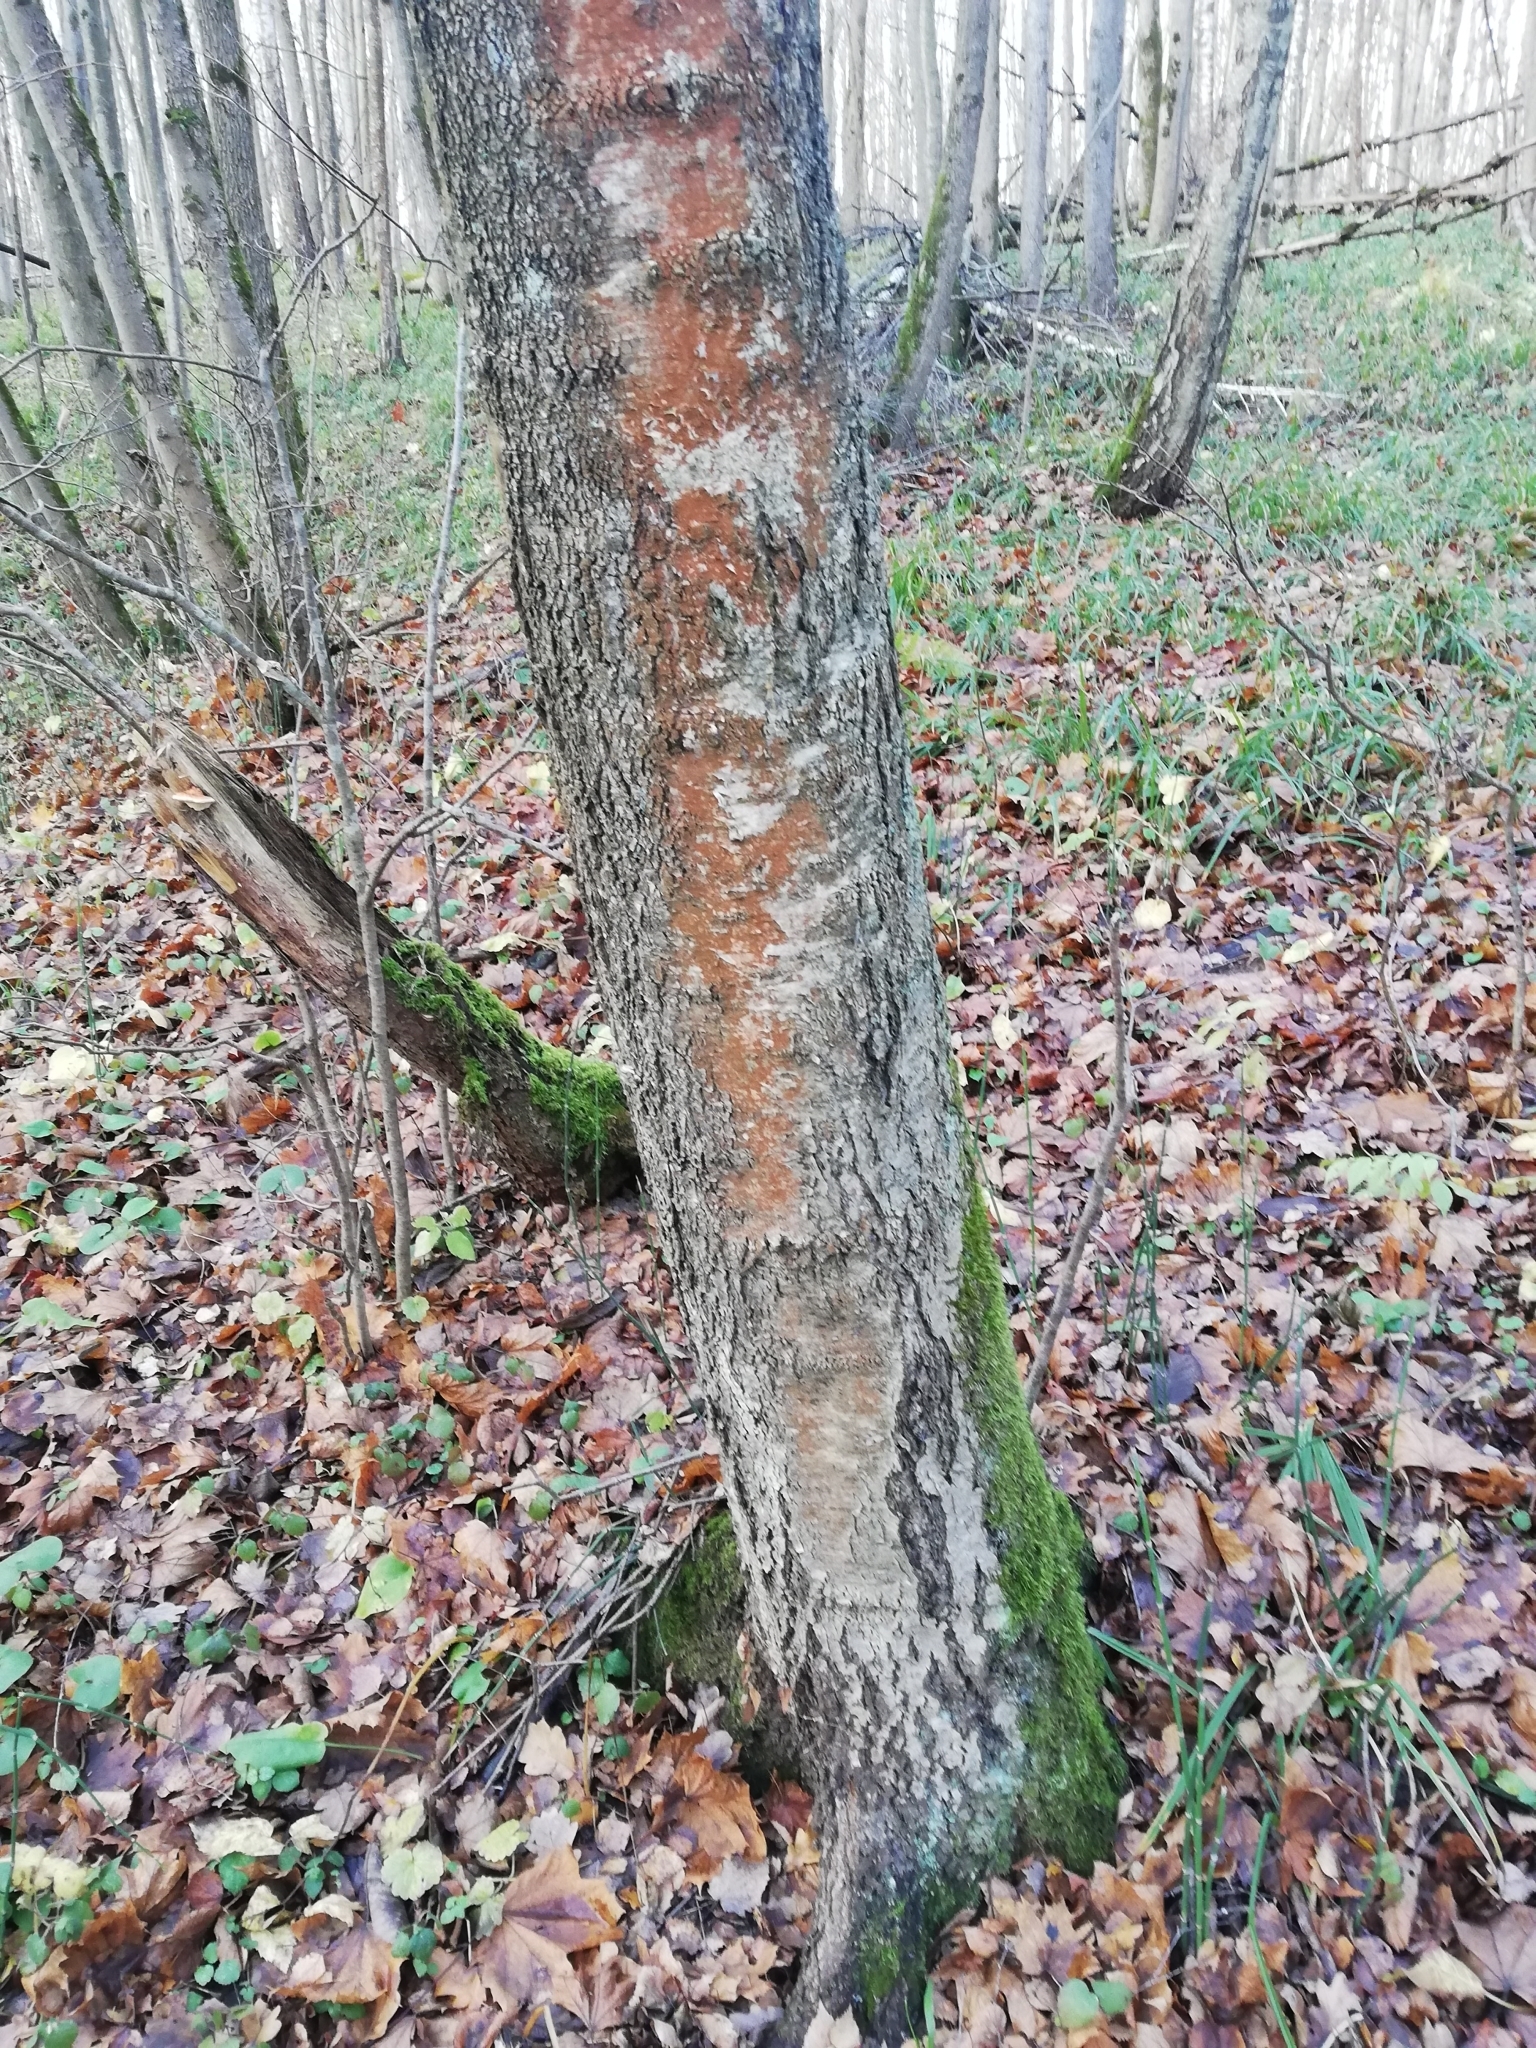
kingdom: Plantae
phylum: Tracheophyta
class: Magnoliopsida
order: Fagales
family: Betulaceae
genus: Betula
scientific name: Betula pubescens
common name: Downy birch
